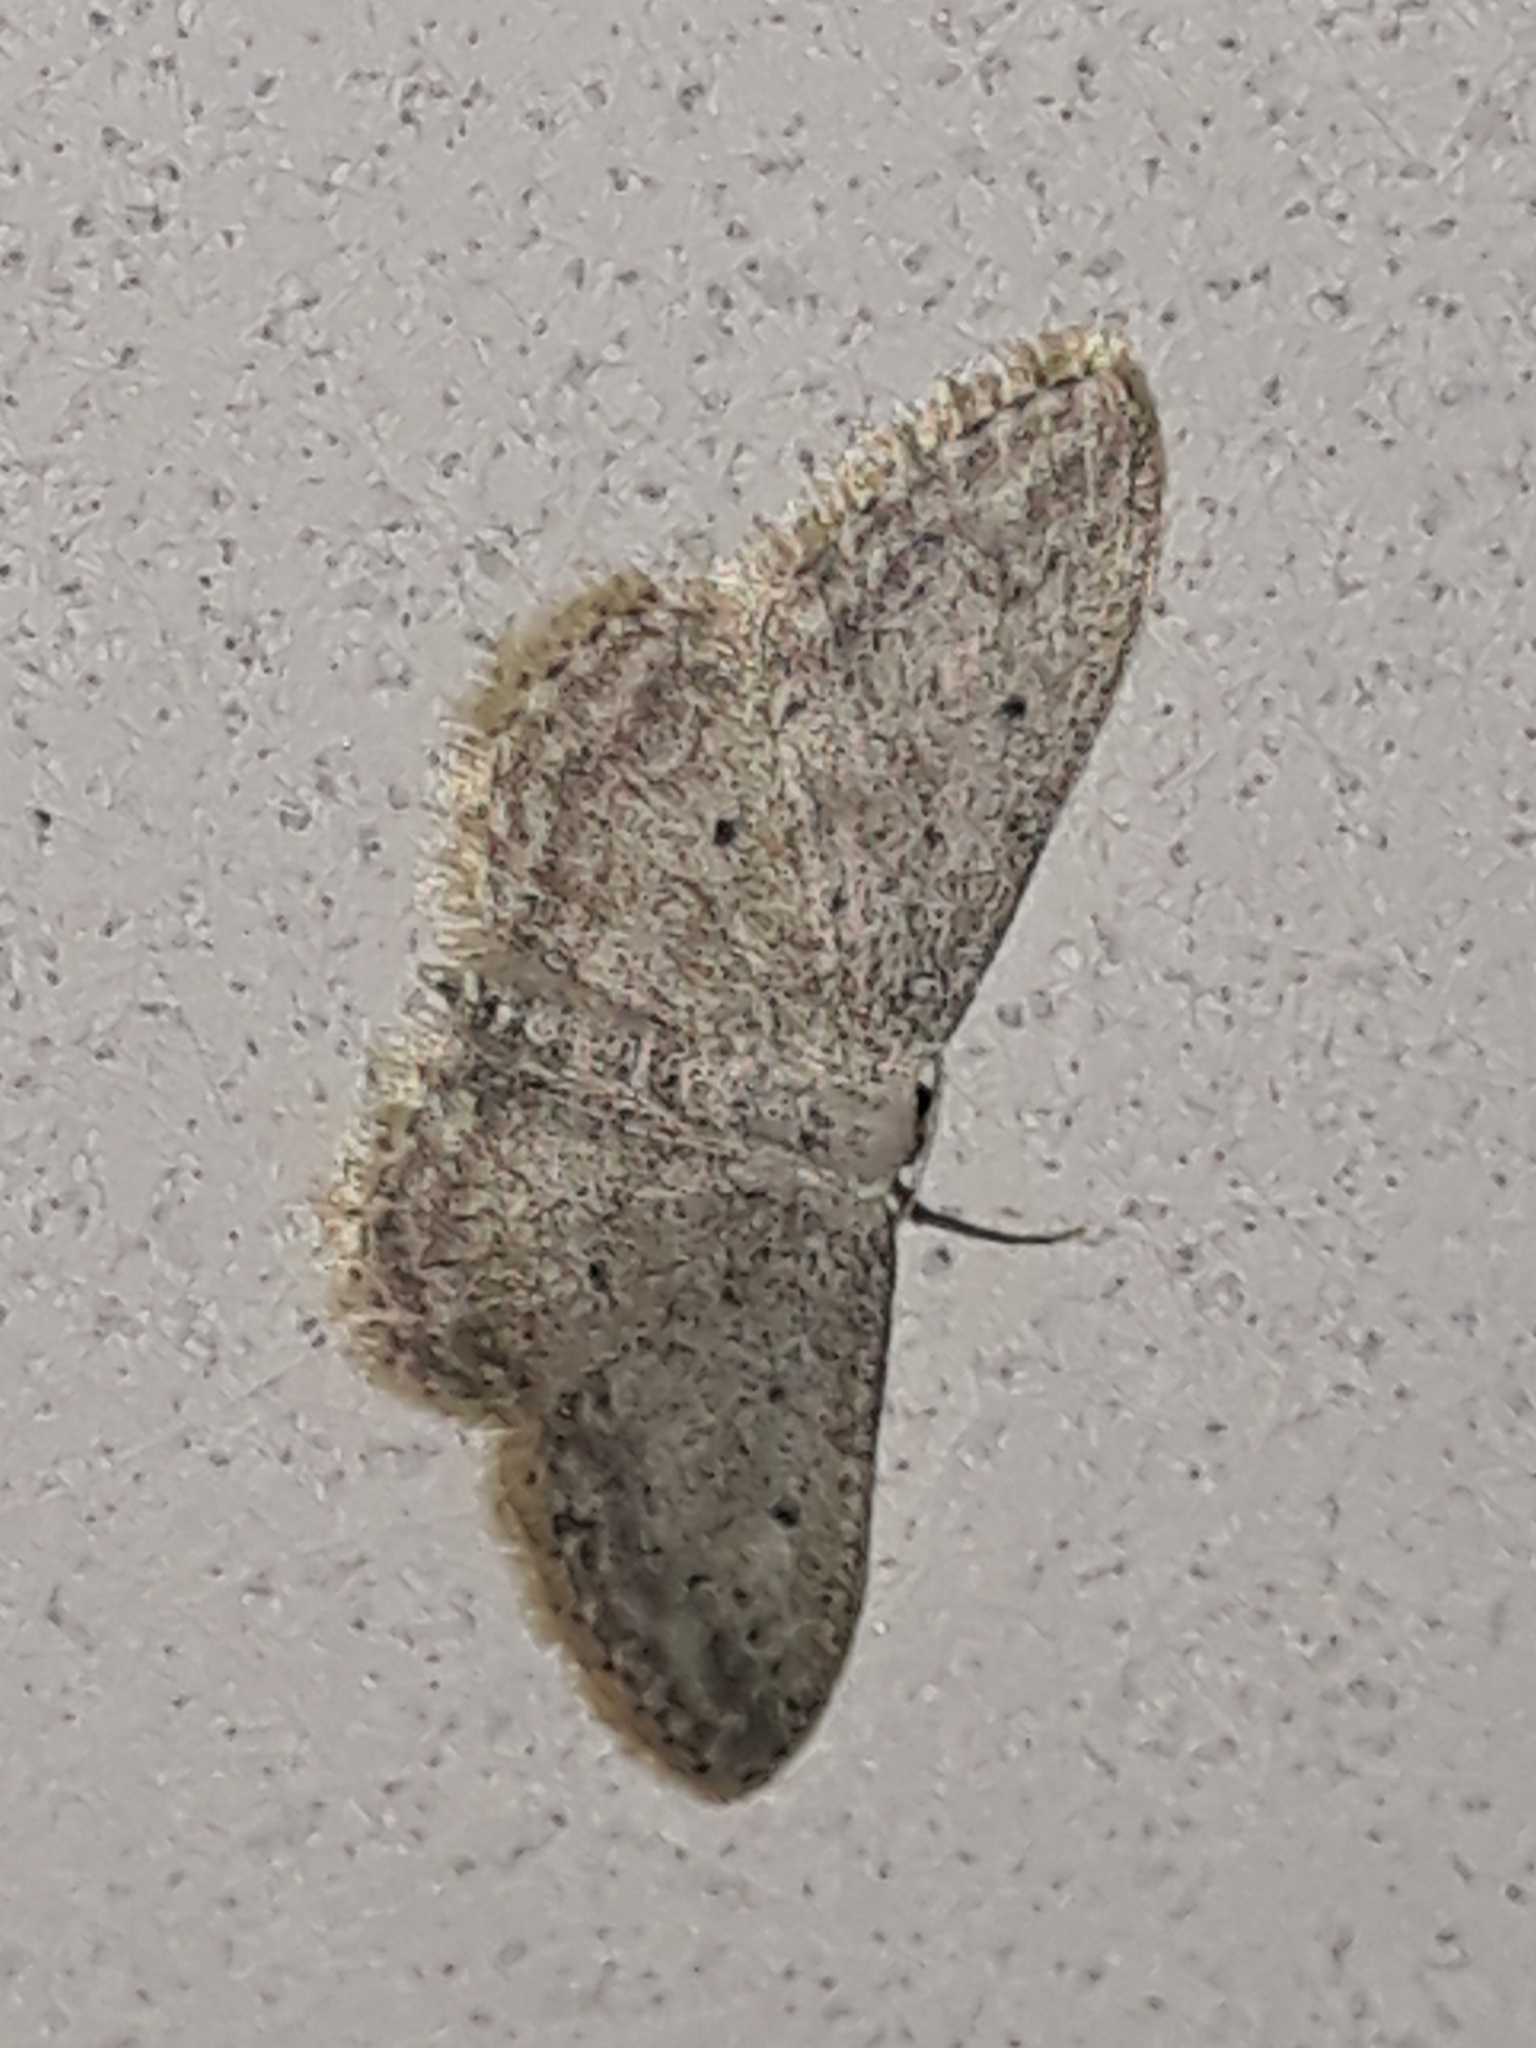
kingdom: Animalia
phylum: Arthropoda
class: Insecta
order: Lepidoptera
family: Geometridae
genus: Idaea
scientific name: Idaea seriata
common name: Small dusty wave
